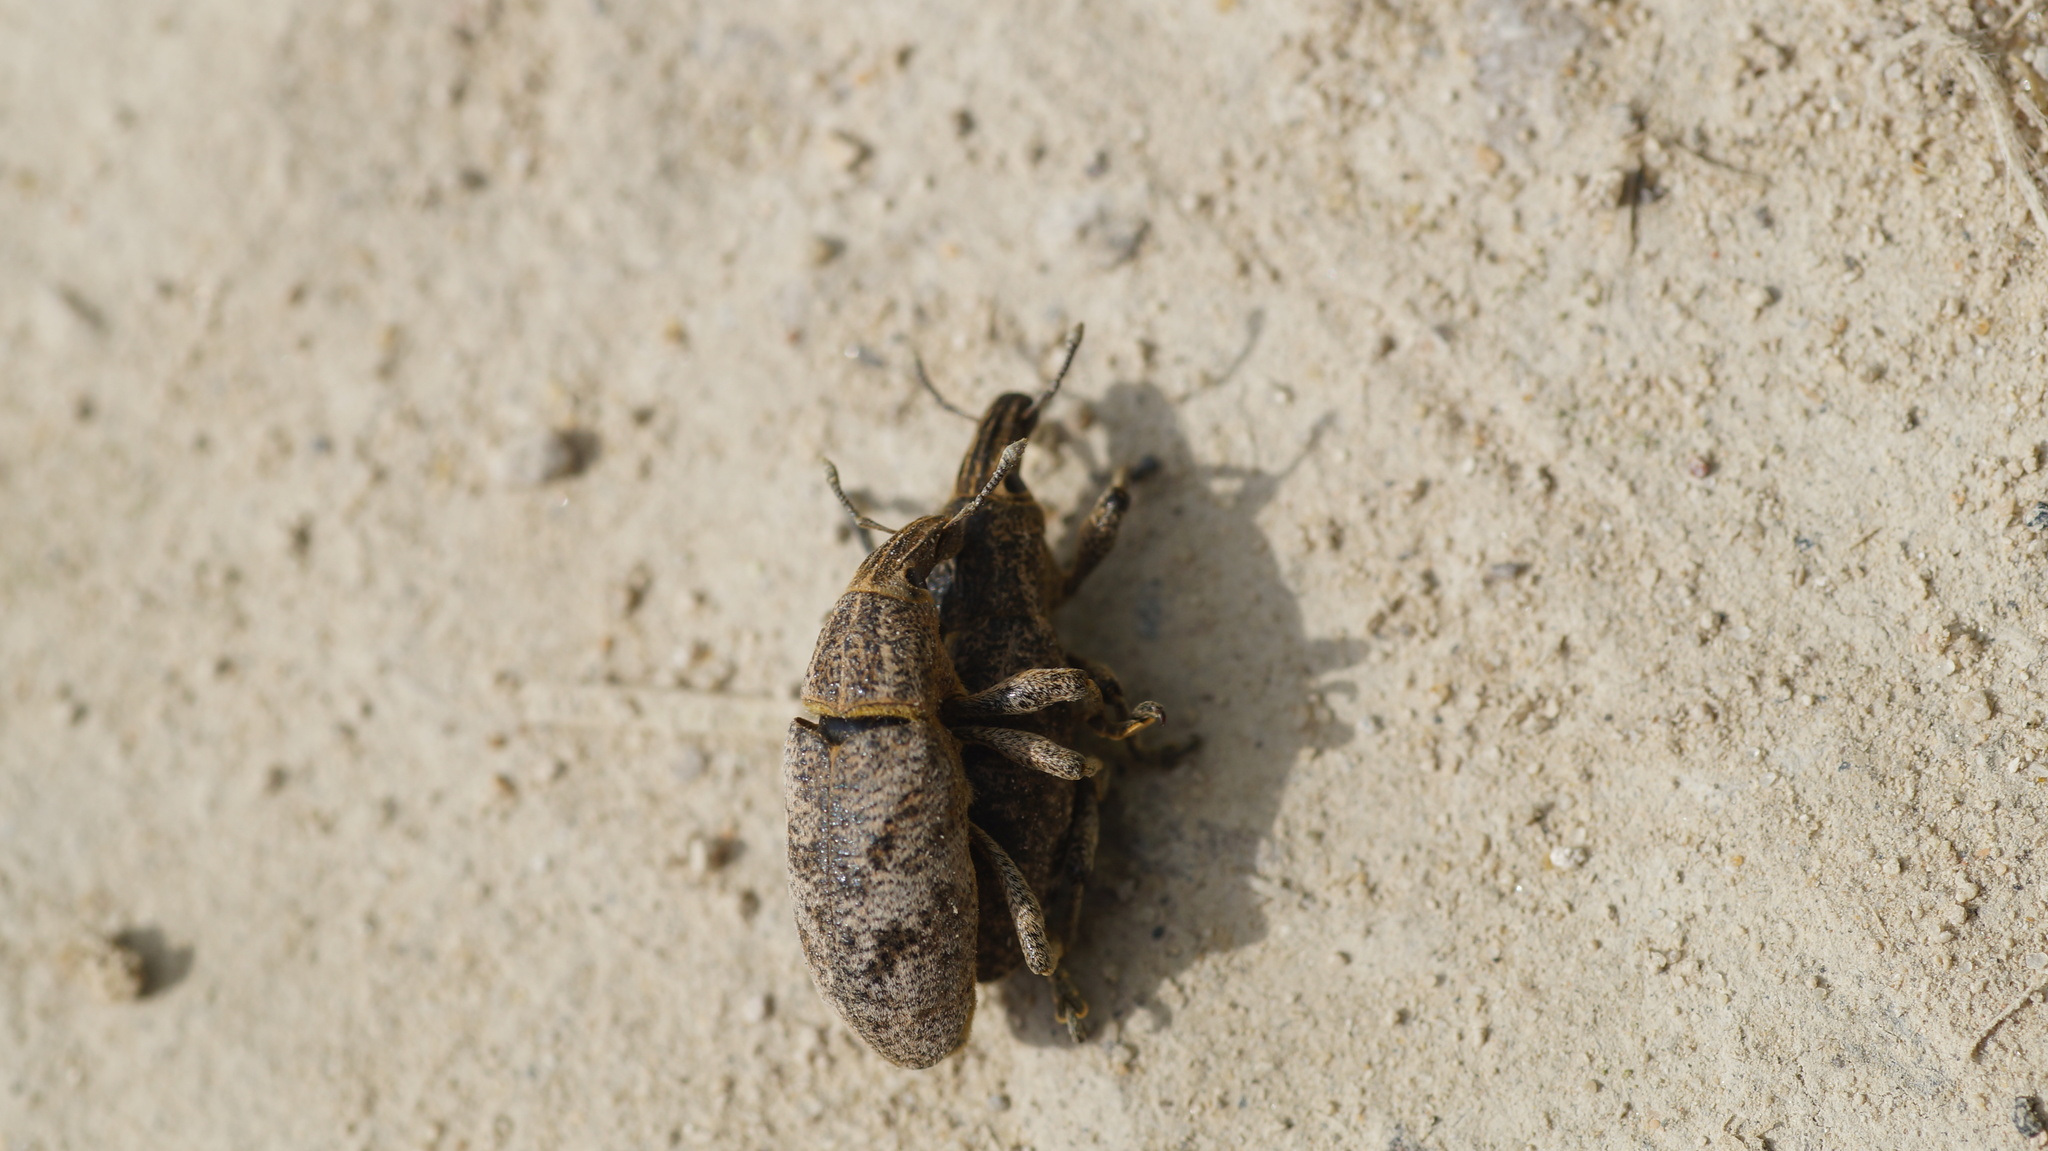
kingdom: Animalia
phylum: Arthropoda
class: Insecta
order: Coleoptera
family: Curculionidae
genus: Cleonis
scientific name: Cleonis pigra
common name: Large thistle weevil
